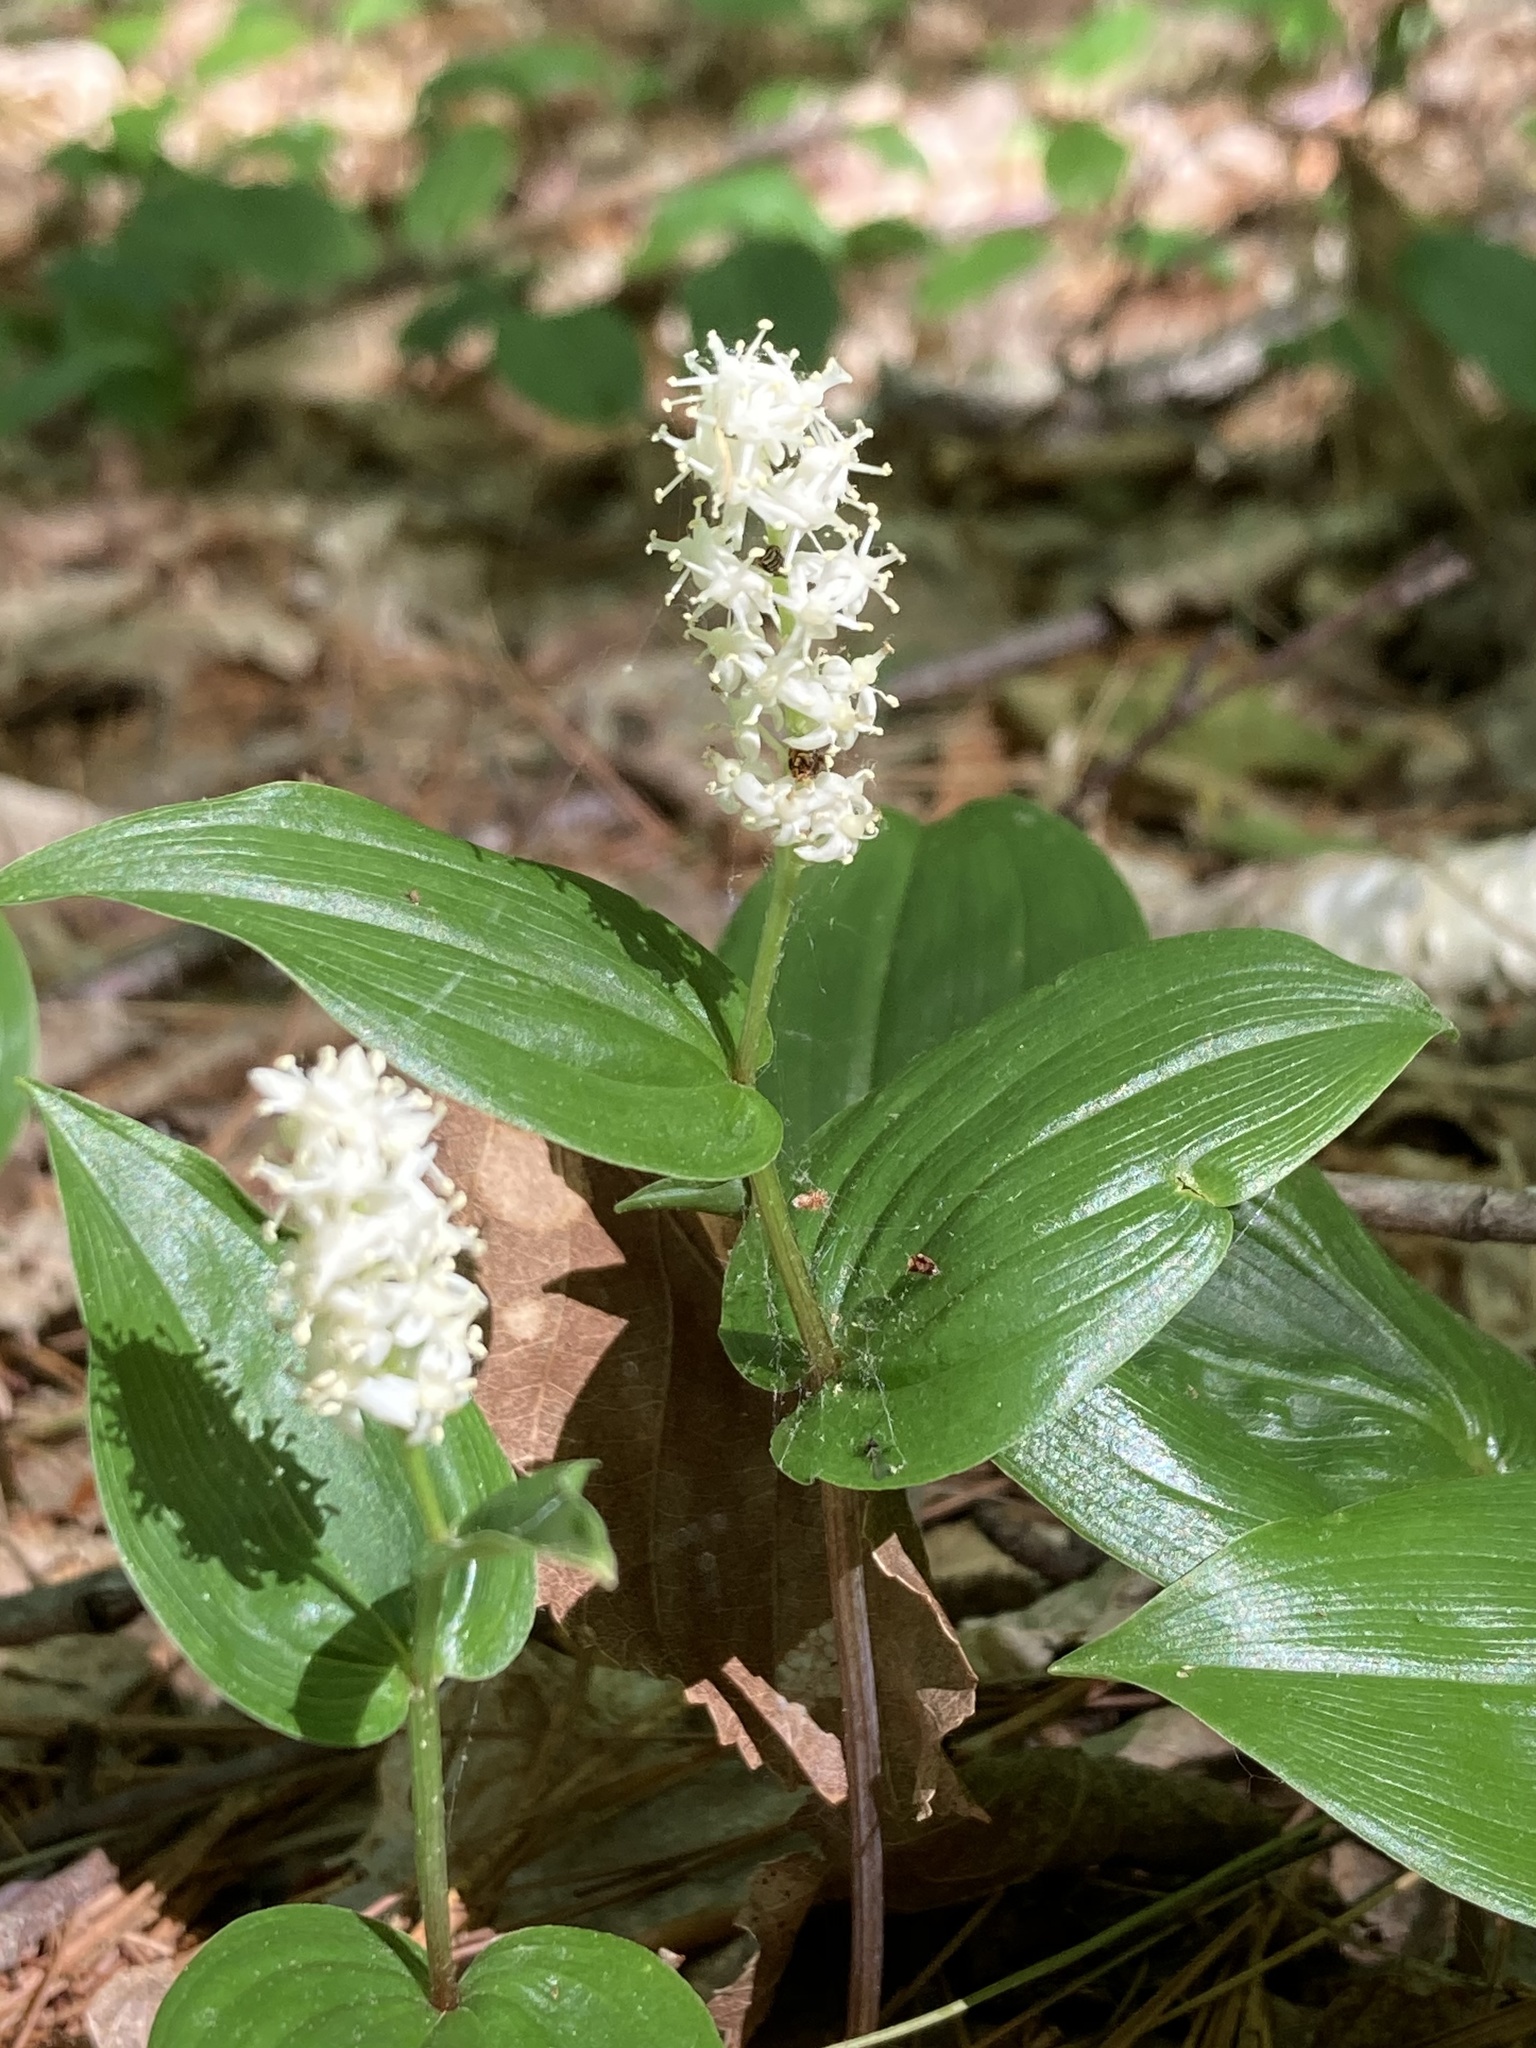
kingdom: Plantae
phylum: Tracheophyta
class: Liliopsida
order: Asparagales
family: Asparagaceae
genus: Maianthemum
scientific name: Maianthemum canadense
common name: False lily-of-the-valley
